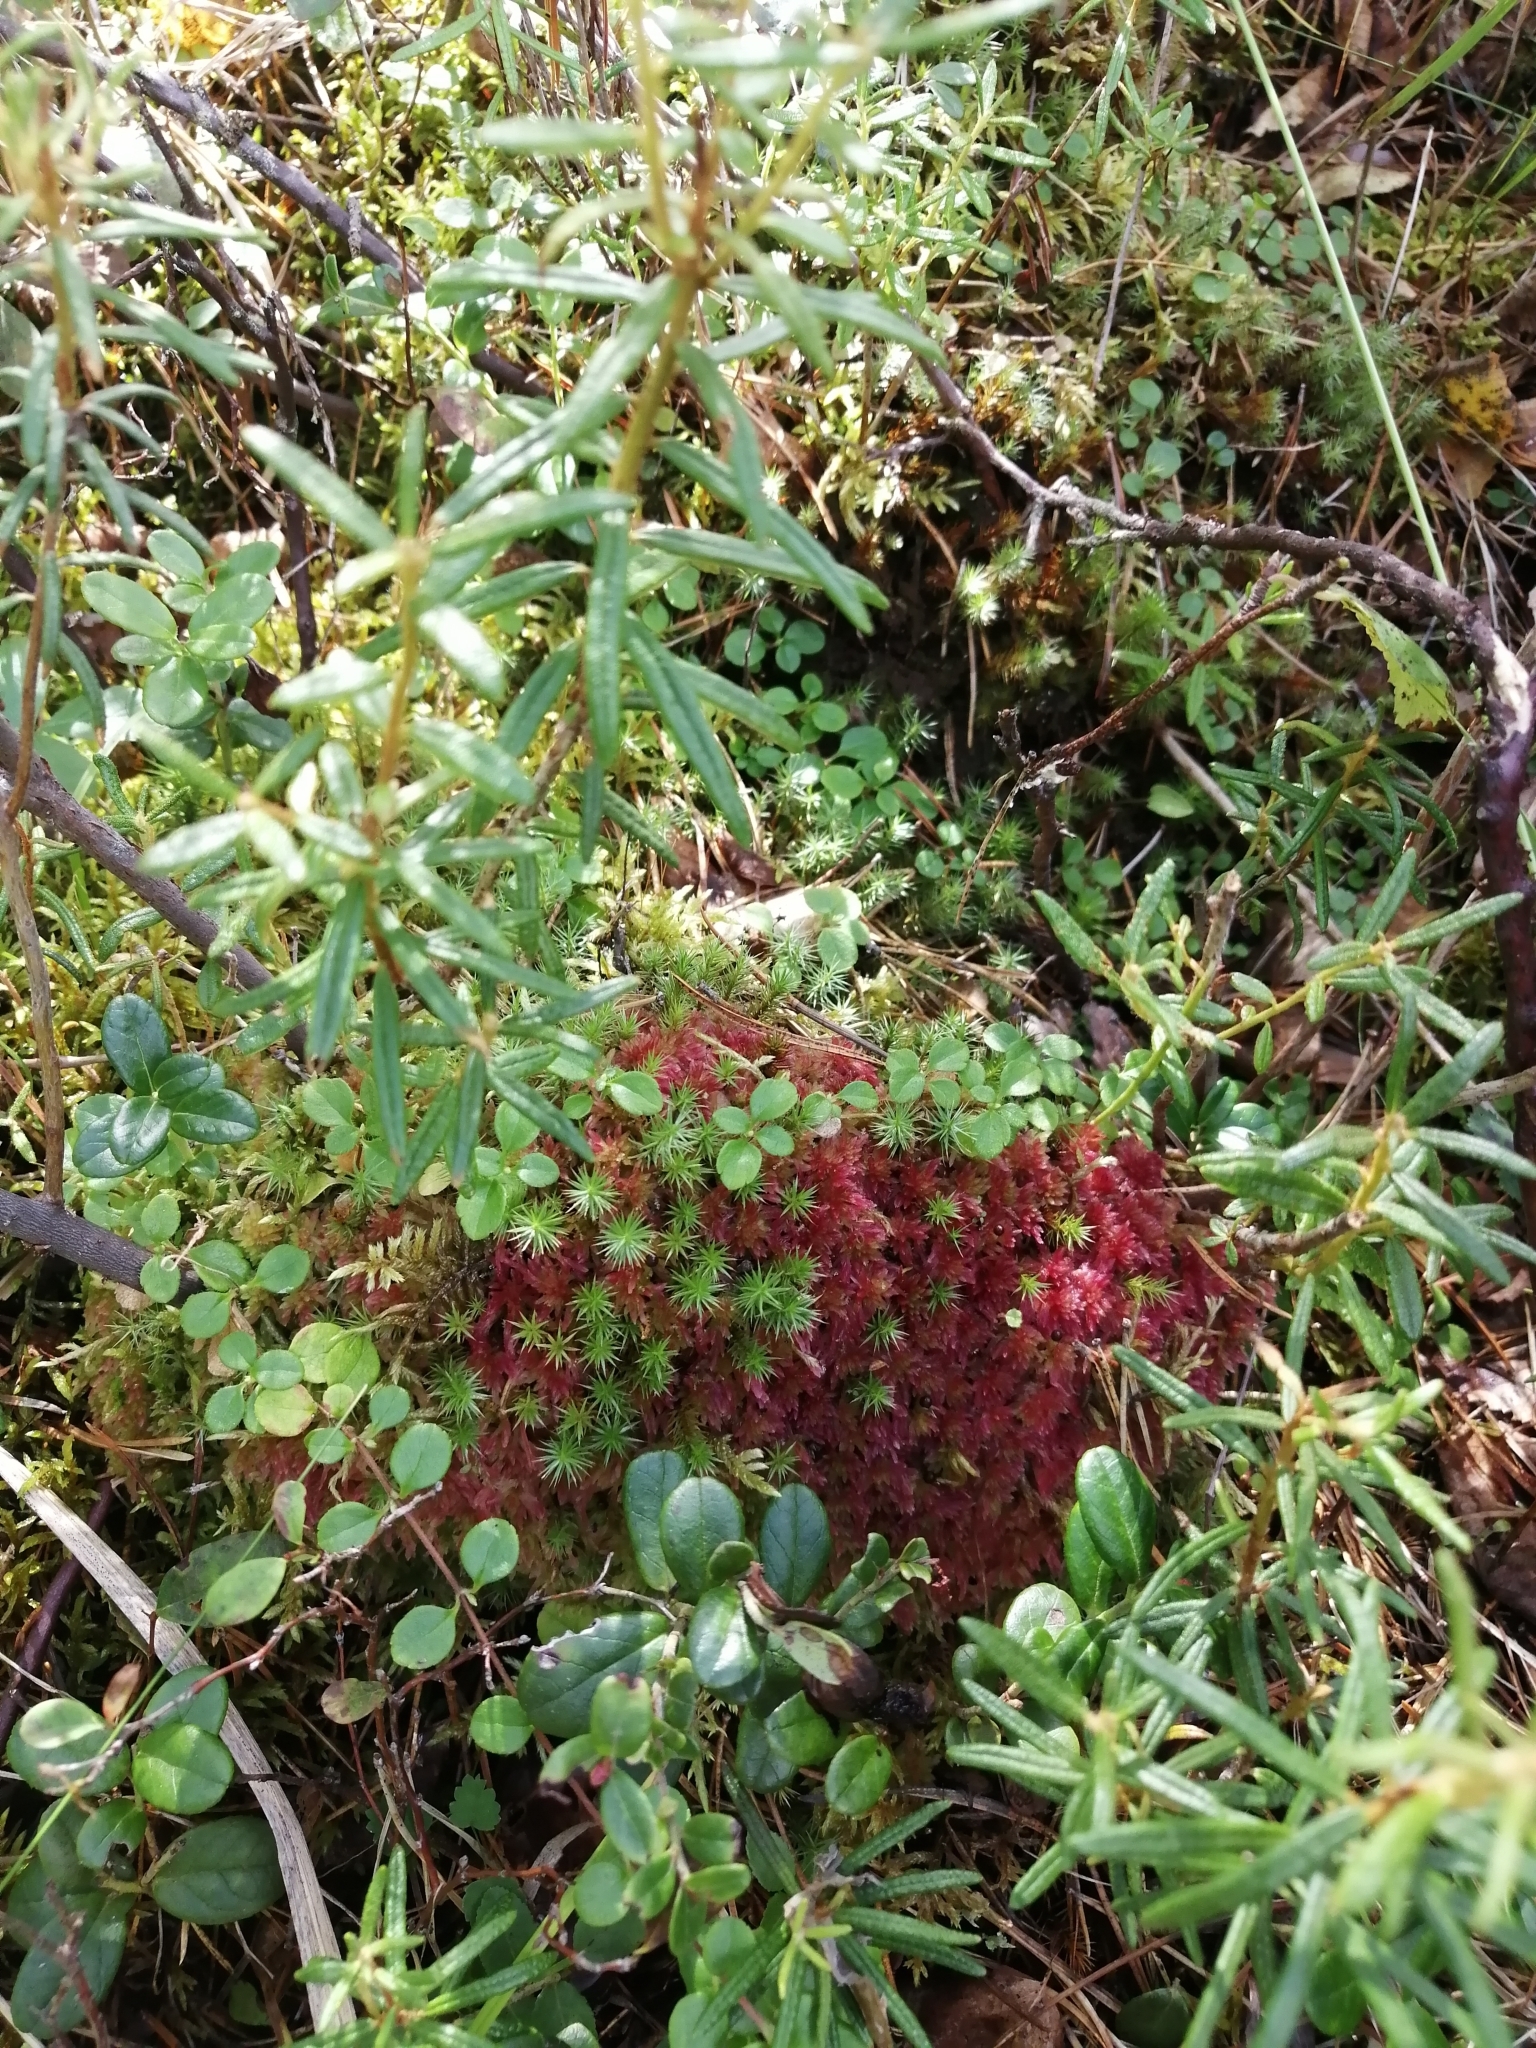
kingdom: Plantae
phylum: Tracheophyta
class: Magnoliopsida
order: Ericales
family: Ericaceae
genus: Rhododendron
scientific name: Rhododendron tomentosum
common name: Marsh labrador tea
